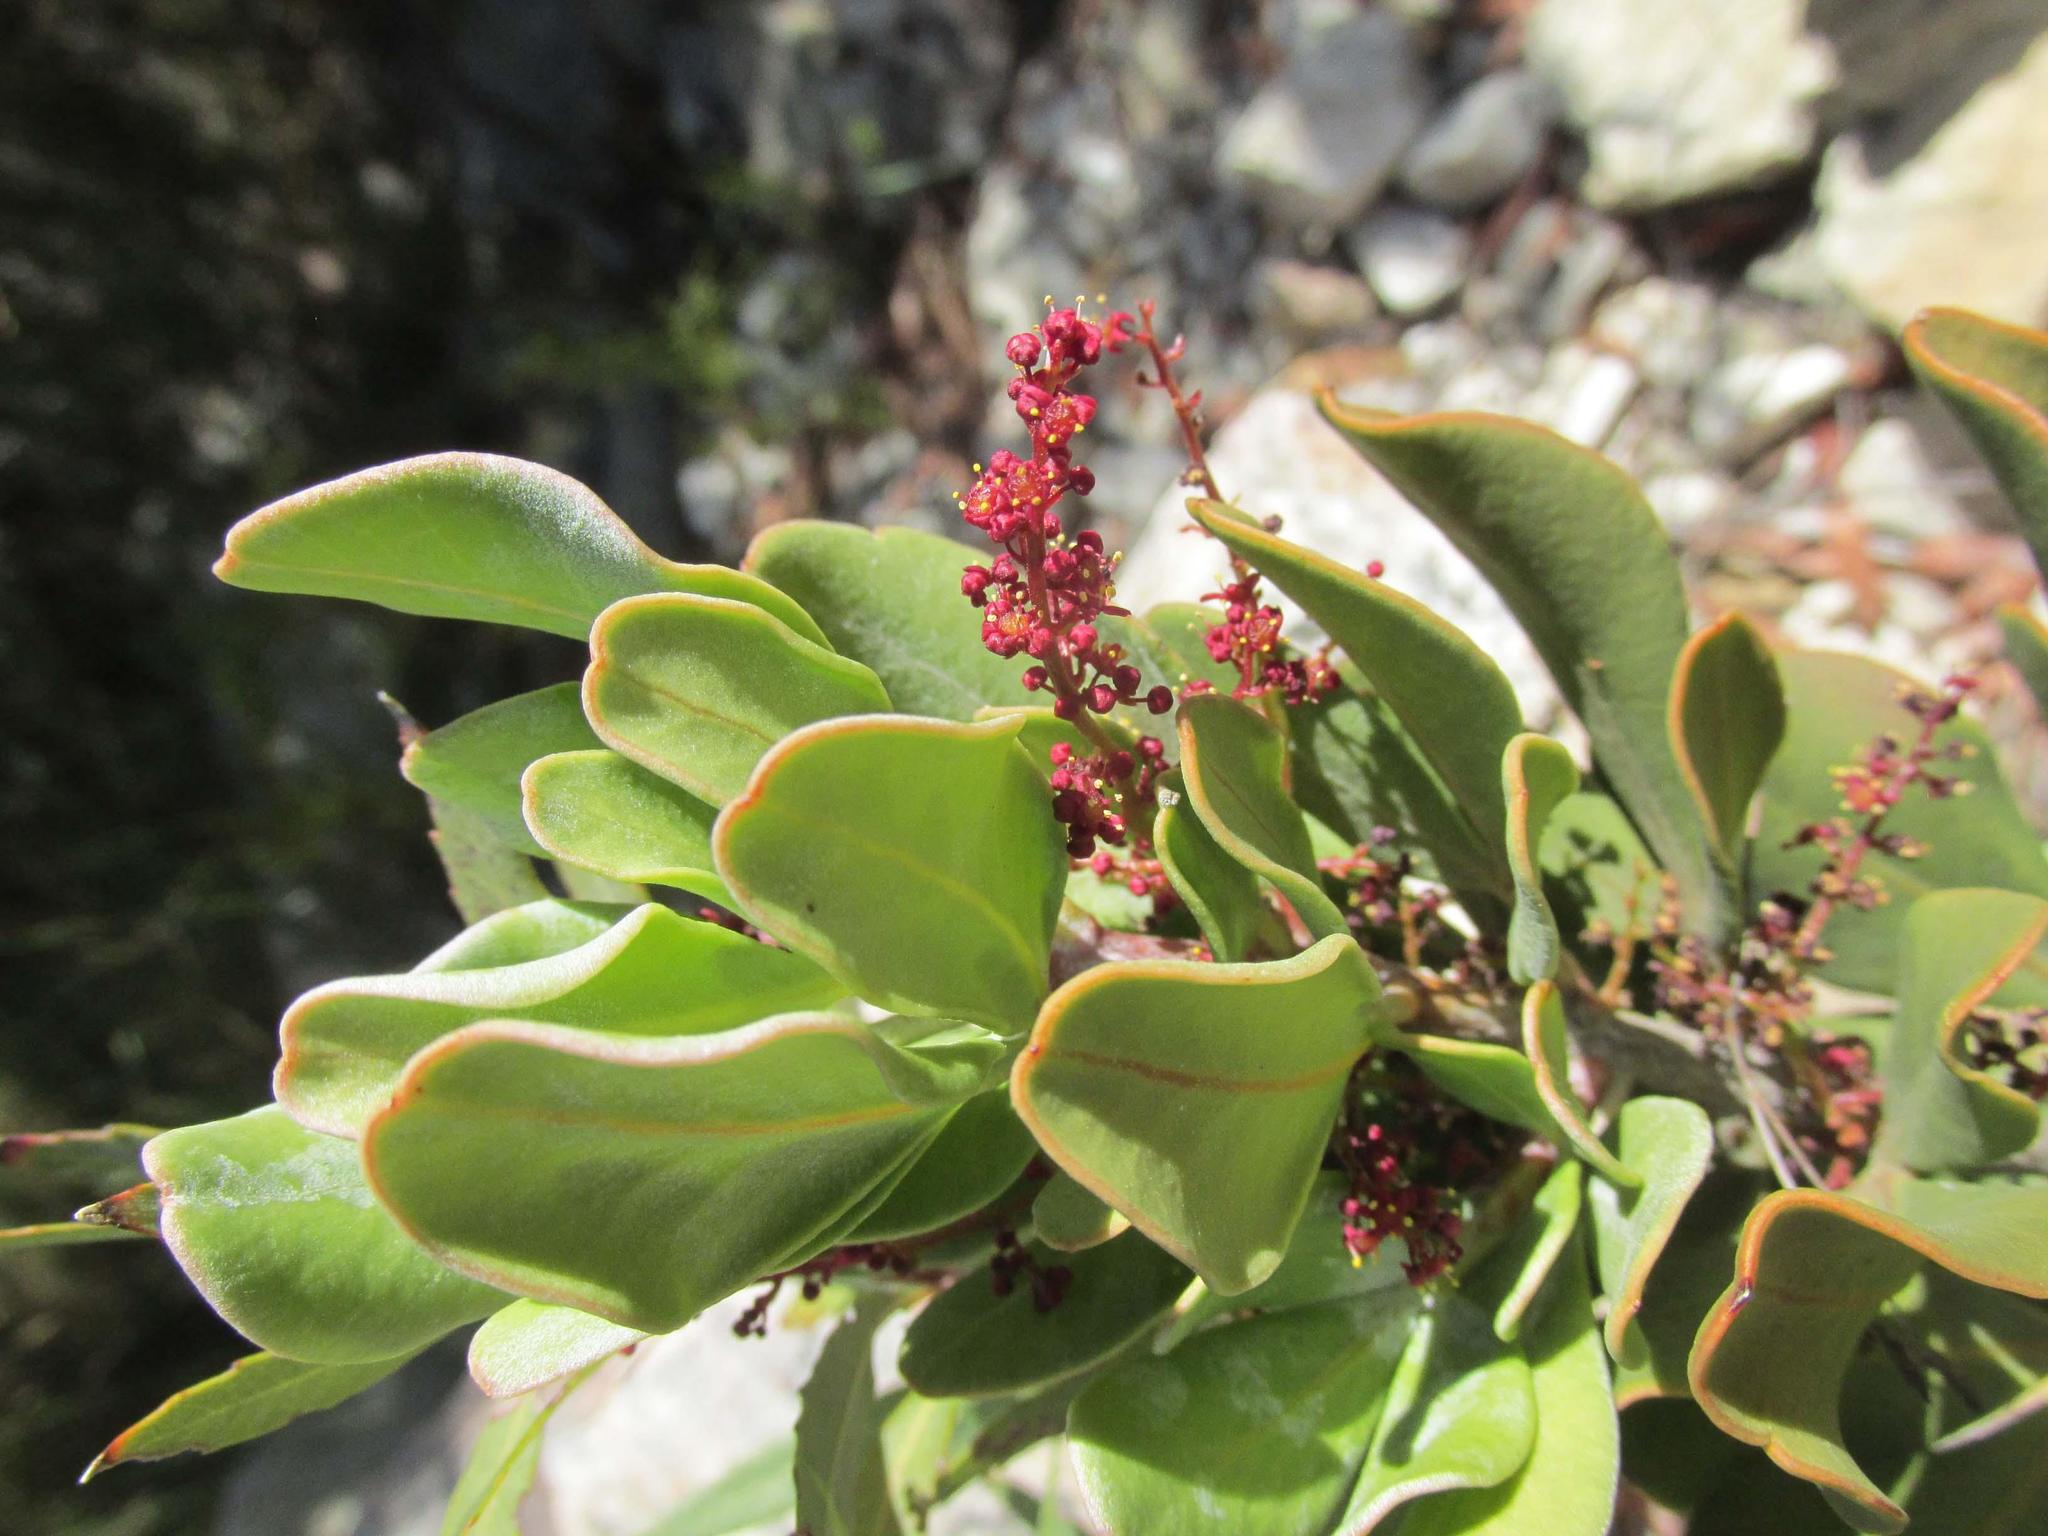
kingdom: Plantae
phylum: Tracheophyta
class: Magnoliopsida
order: Sapindales
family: Anacardiaceae
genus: Searsia
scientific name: Searsia scytophylla
